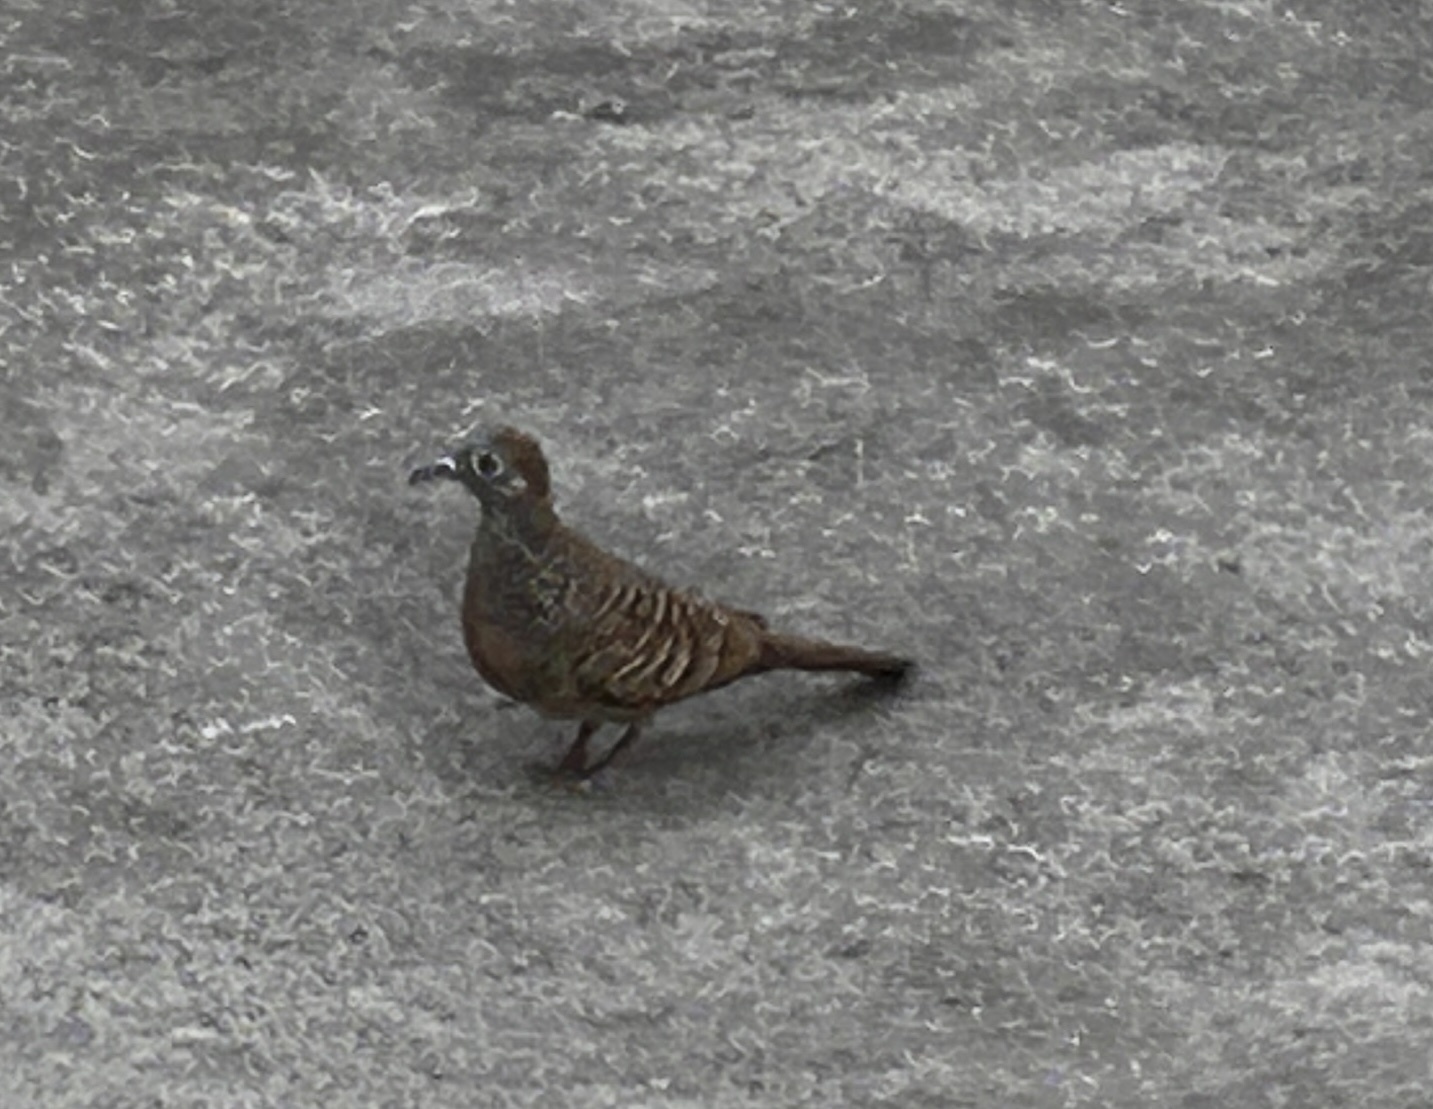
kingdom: Animalia
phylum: Chordata
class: Aves
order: Columbiformes
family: Columbidae
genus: Geopelia
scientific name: Geopelia striata
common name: Zebra dove
